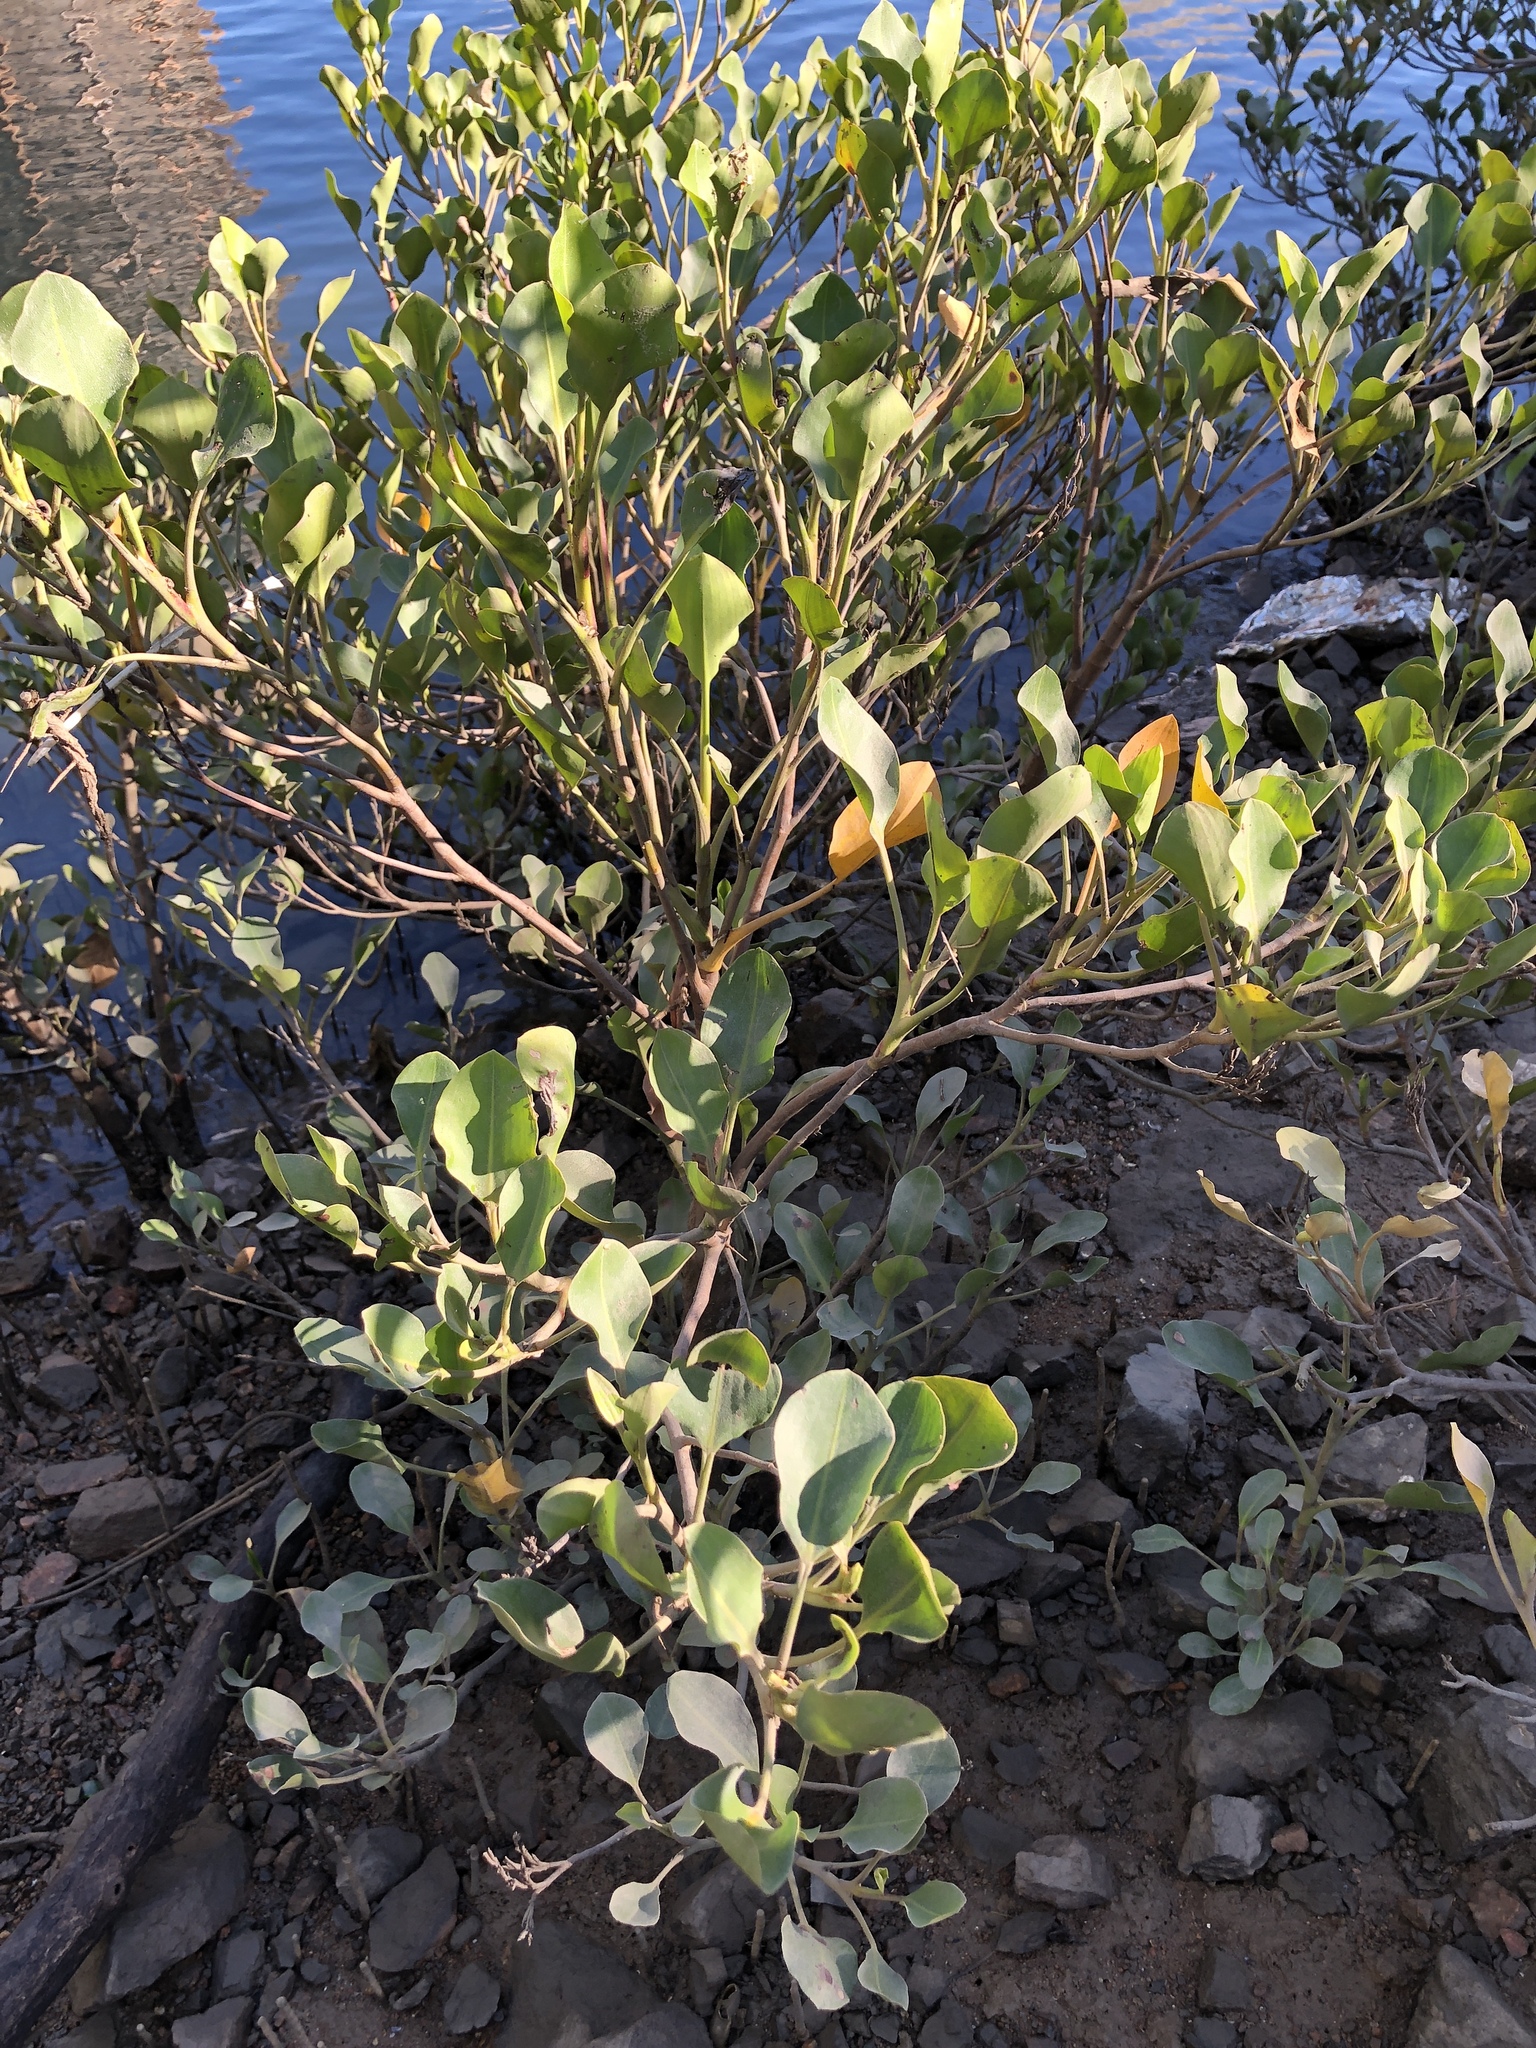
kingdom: Plantae
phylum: Tracheophyta
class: Magnoliopsida
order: Caryophyllales
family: Plumbaginaceae
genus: Aegialitis
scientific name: Aegialitis annulata
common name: Club mangrove
